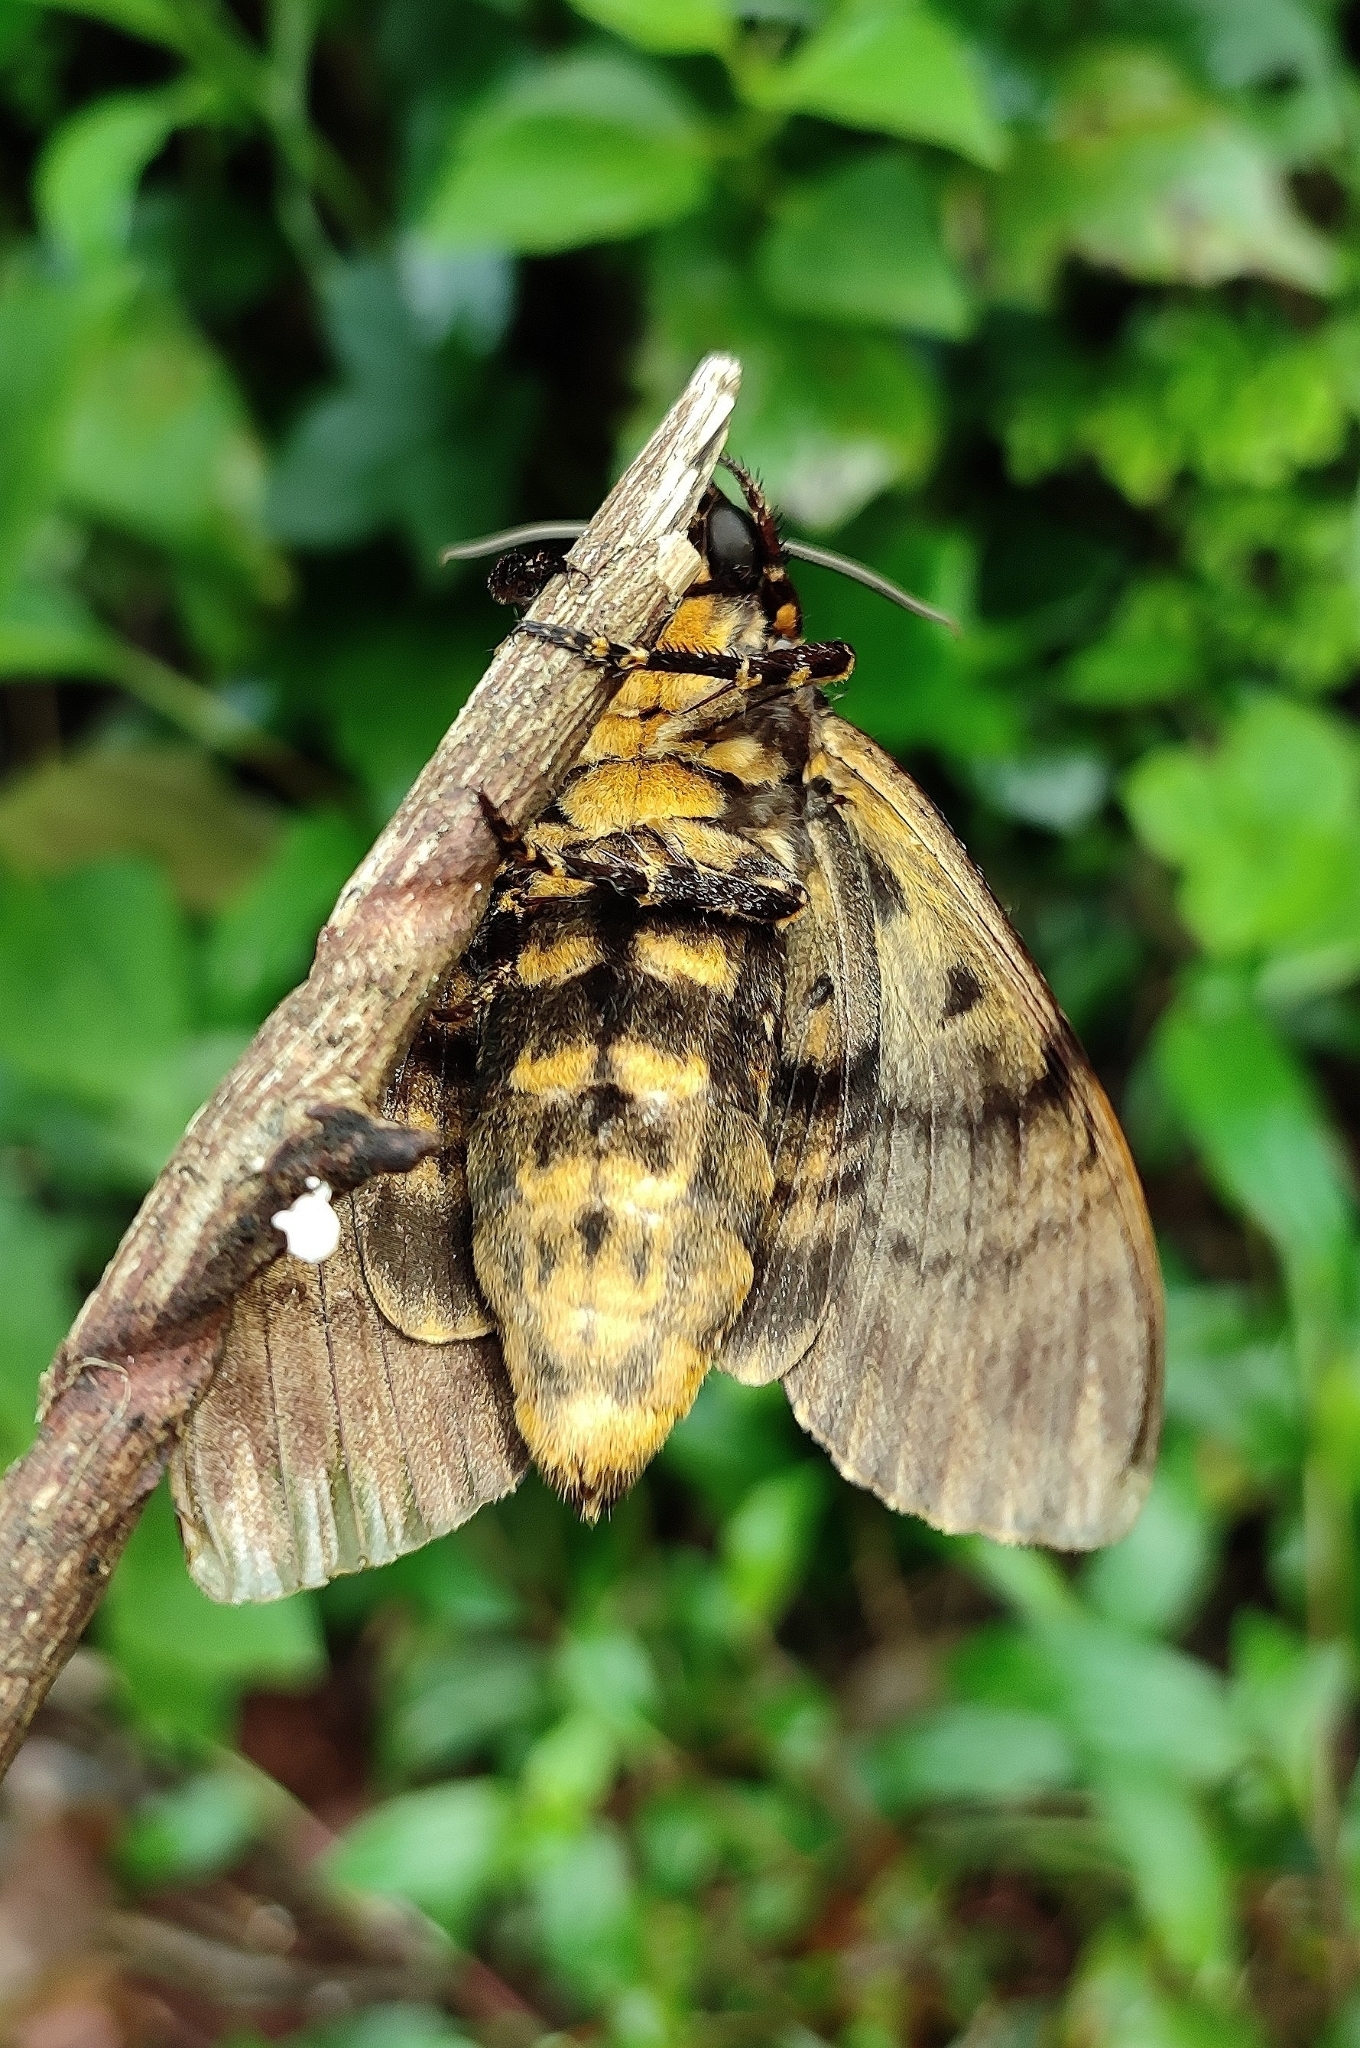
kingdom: Animalia
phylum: Arthropoda
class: Insecta
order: Lepidoptera
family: Sphingidae
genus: Acherontia
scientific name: Acherontia lachesis
